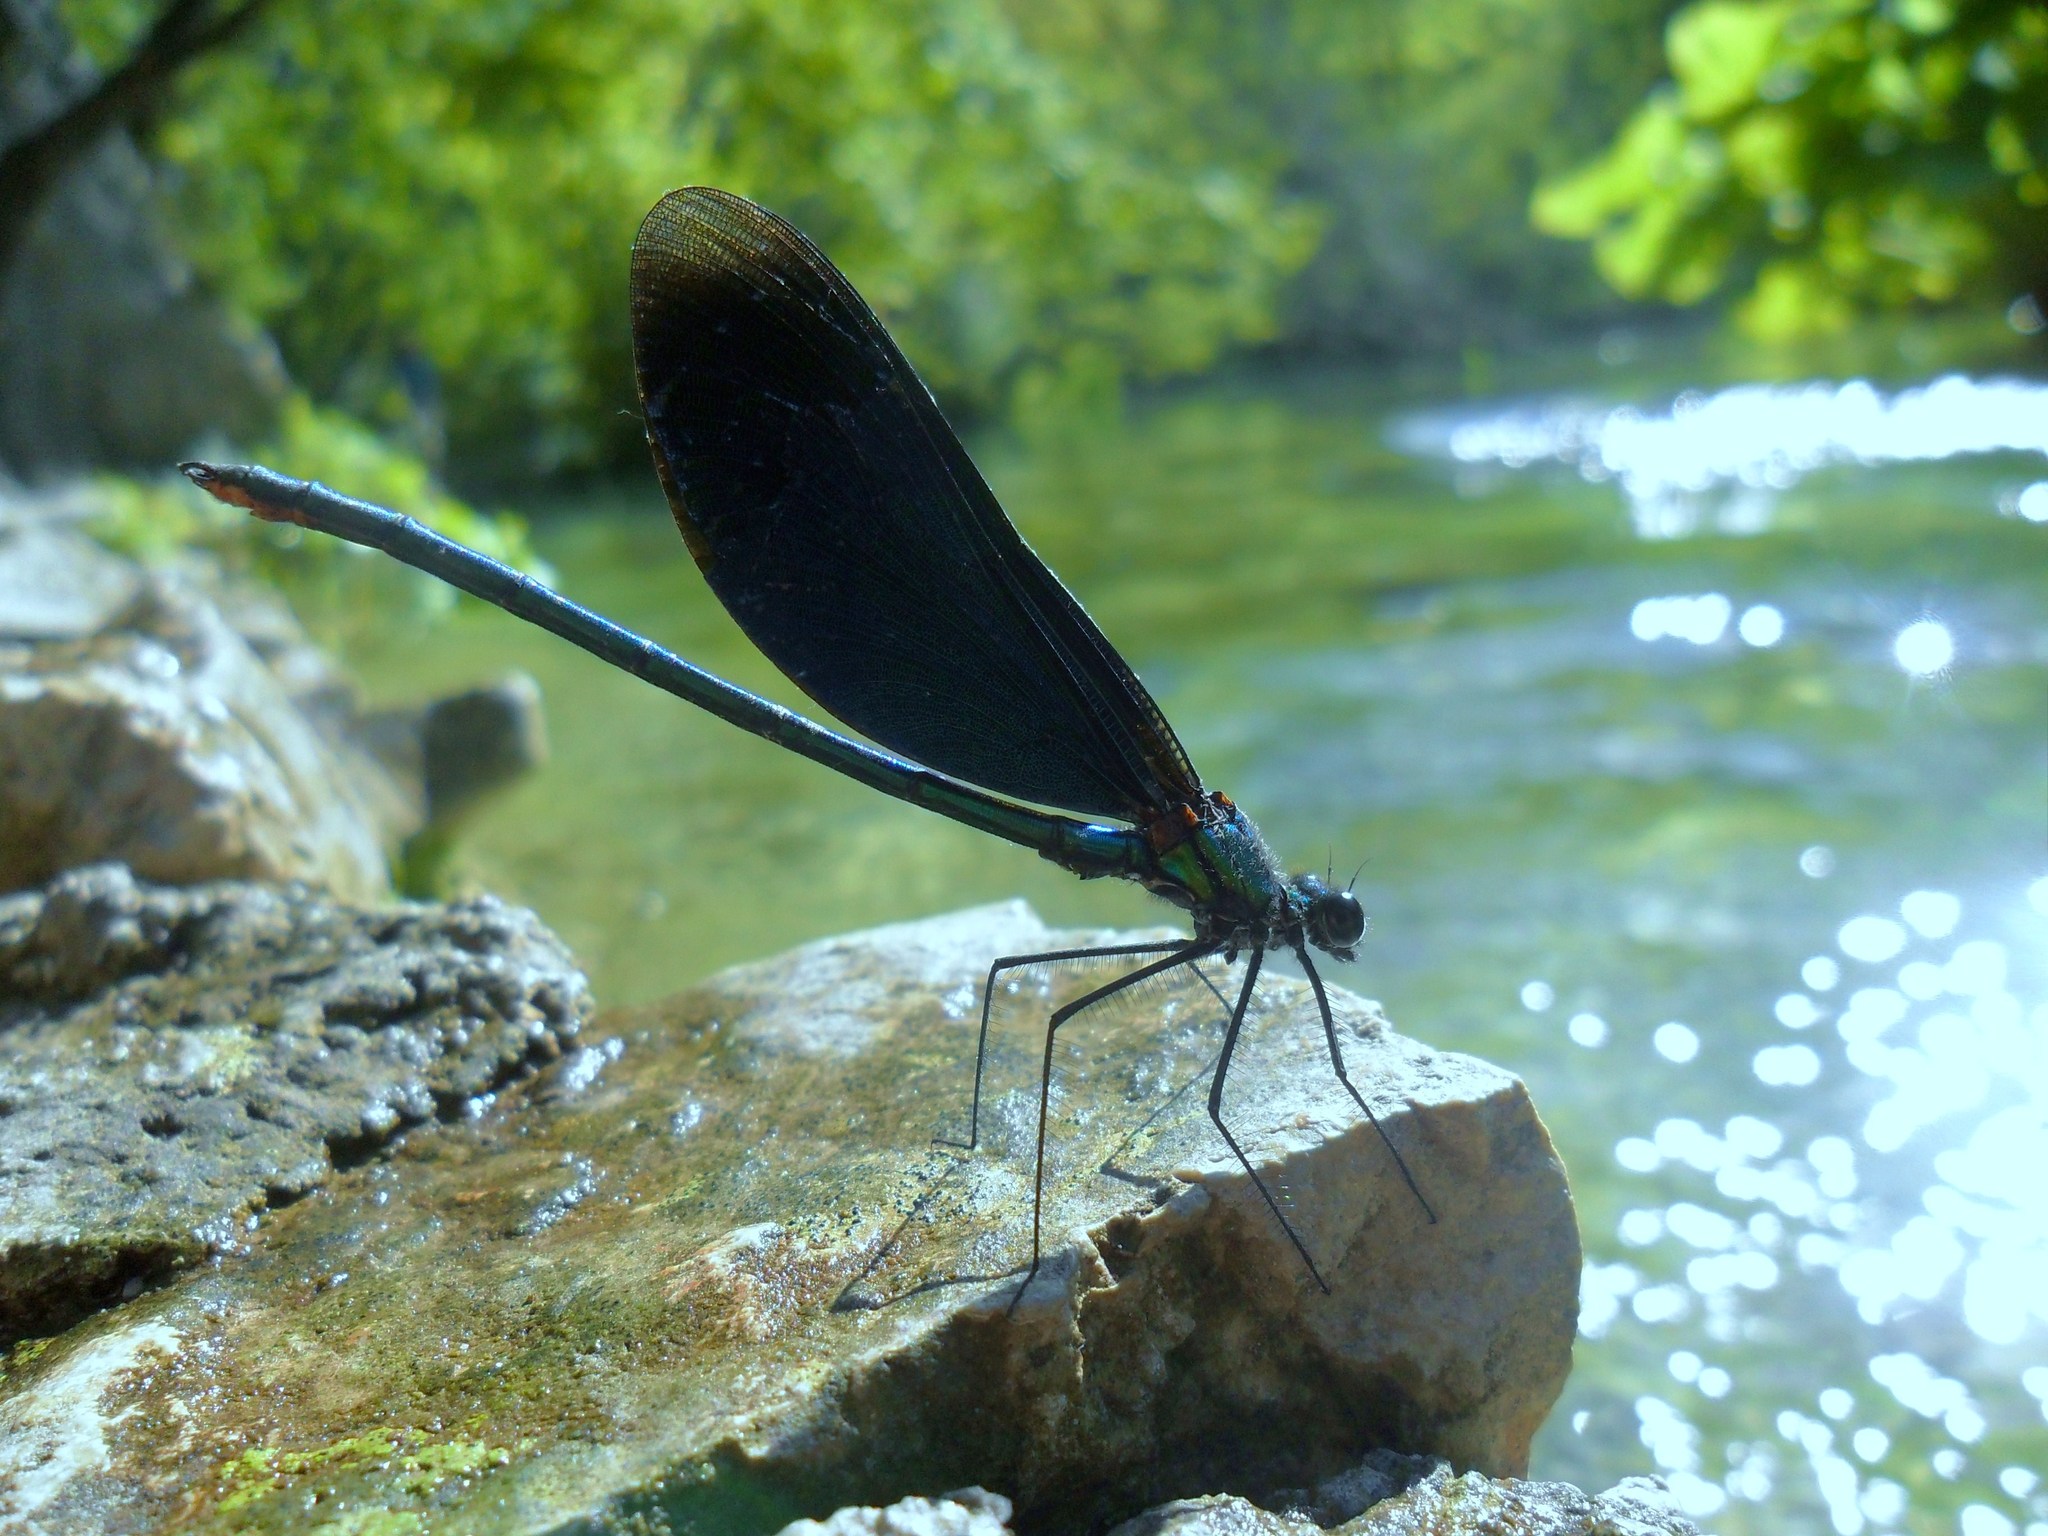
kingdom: Animalia
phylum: Arthropoda
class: Insecta
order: Odonata
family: Calopterygidae
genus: Calopteryx
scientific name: Calopteryx virgo
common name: Beautiful demoiselle
